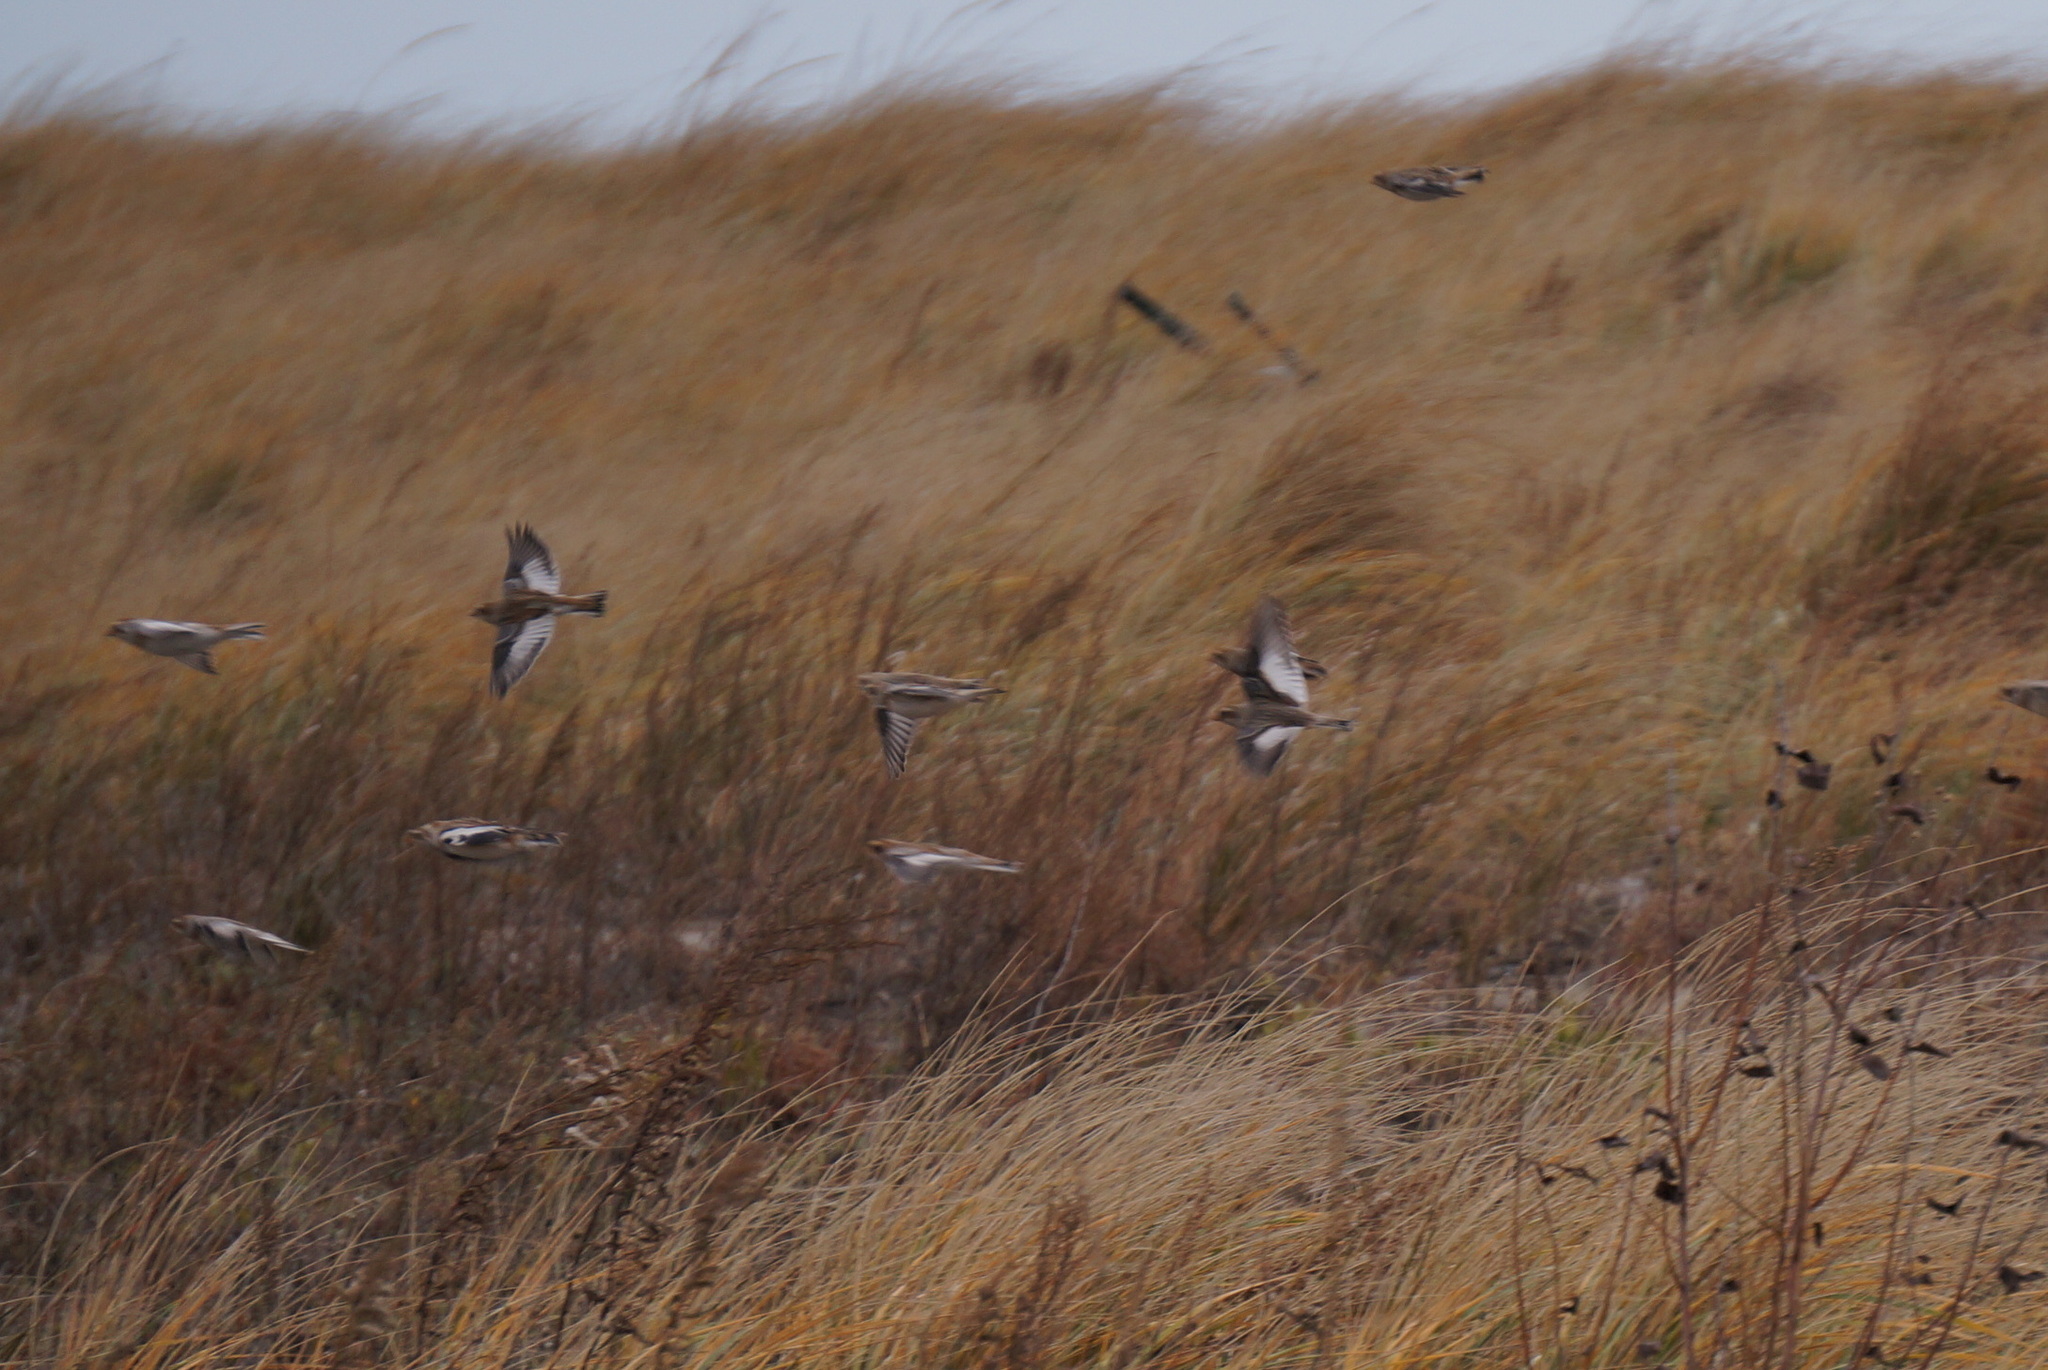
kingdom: Animalia
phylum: Chordata
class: Aves
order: Passeriformes
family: Calcariidae
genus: Plectrophenax
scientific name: Plectrophenax nivalis
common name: Snow bunting
